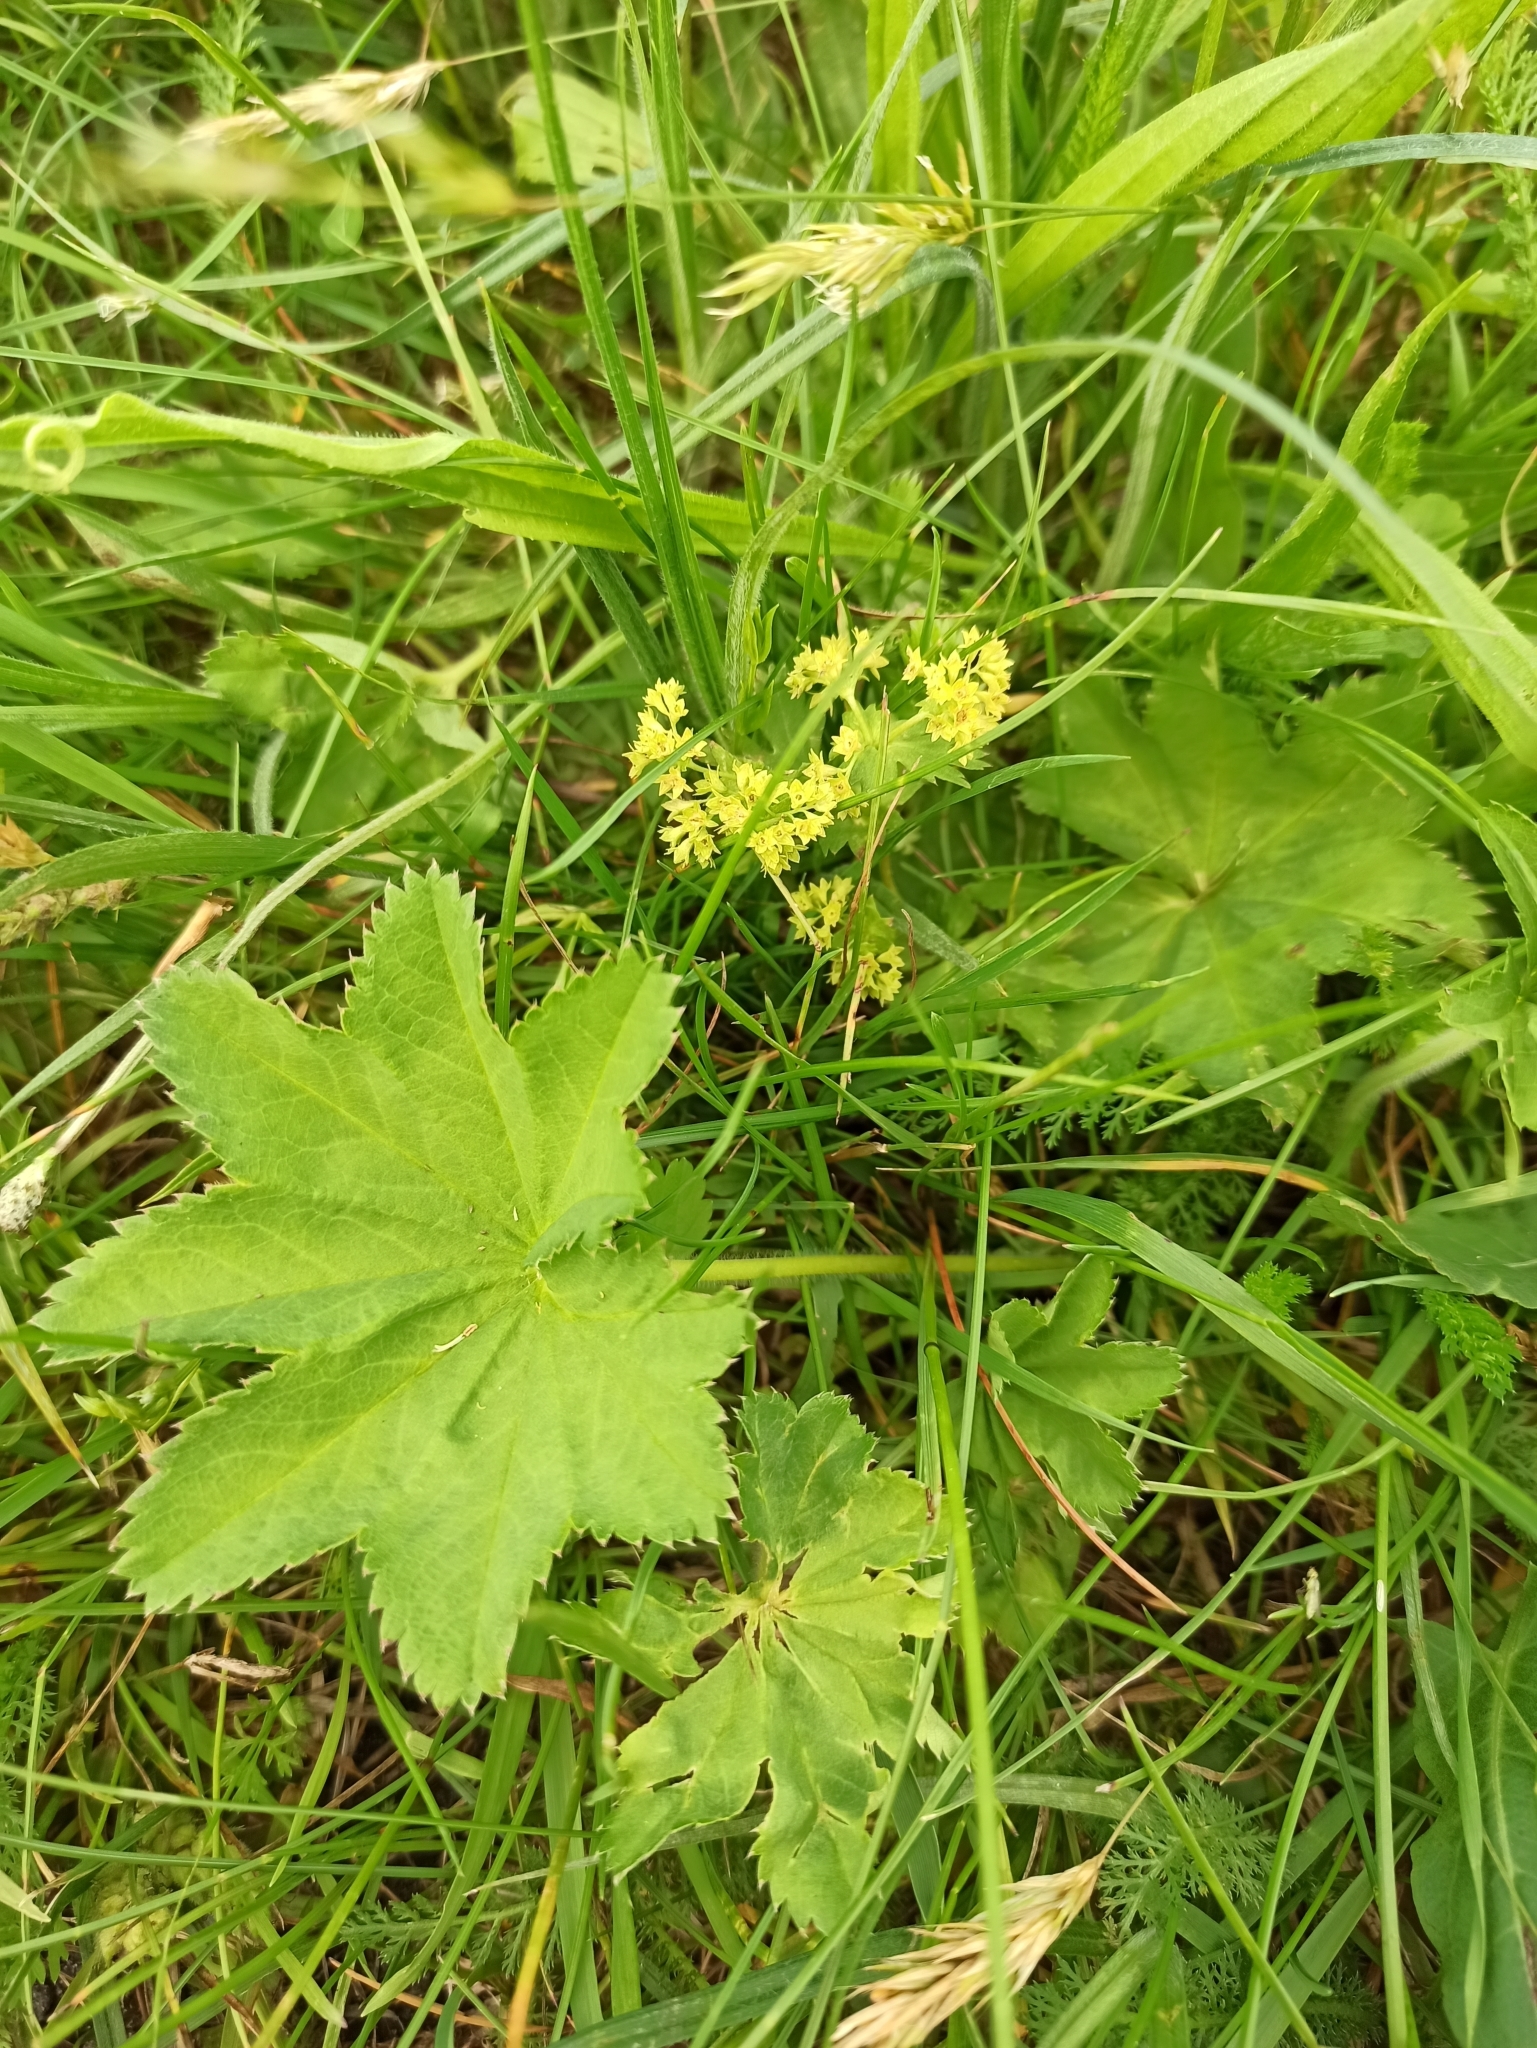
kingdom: Plantae
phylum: Tracheophyta
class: Magnoliopsida
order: Rosales
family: Rosaceae
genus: Alchemilla
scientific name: Alchemilla
